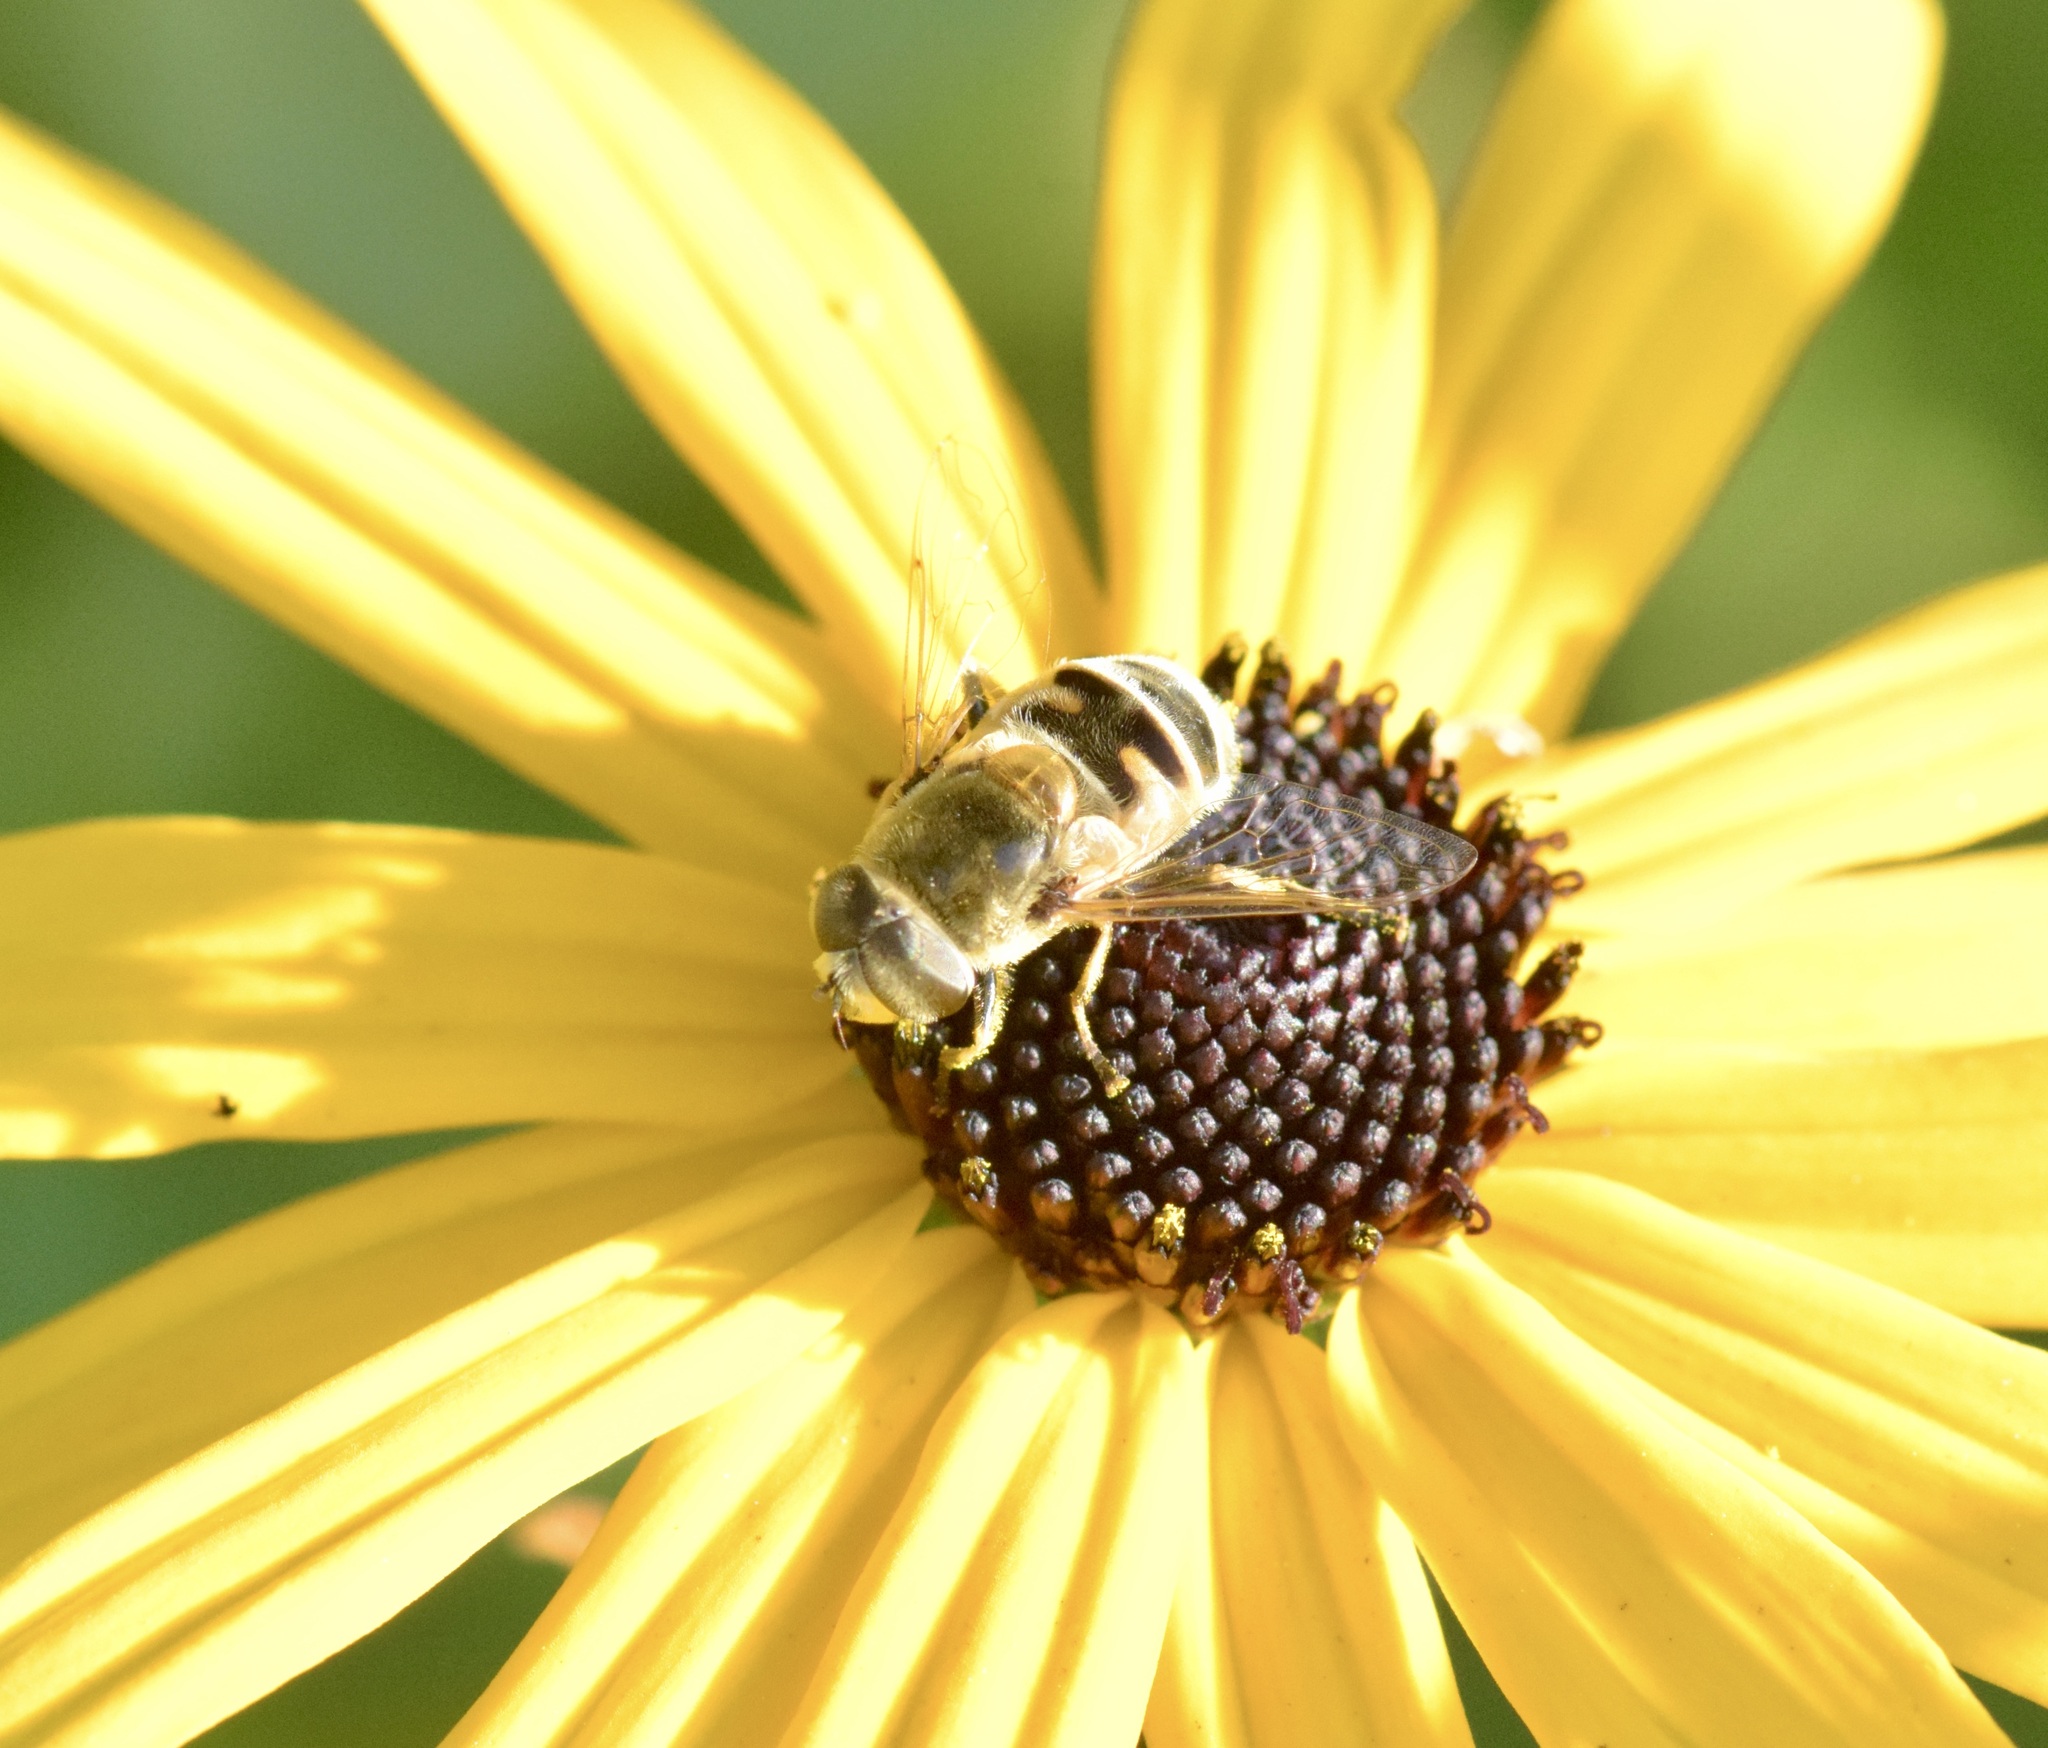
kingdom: Animalia
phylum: Arthropoda
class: Insecta
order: Diptera
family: Syrphidae
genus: Eristalis
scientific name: Eristalis stipator
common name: Yellow-shouldered drone fly
